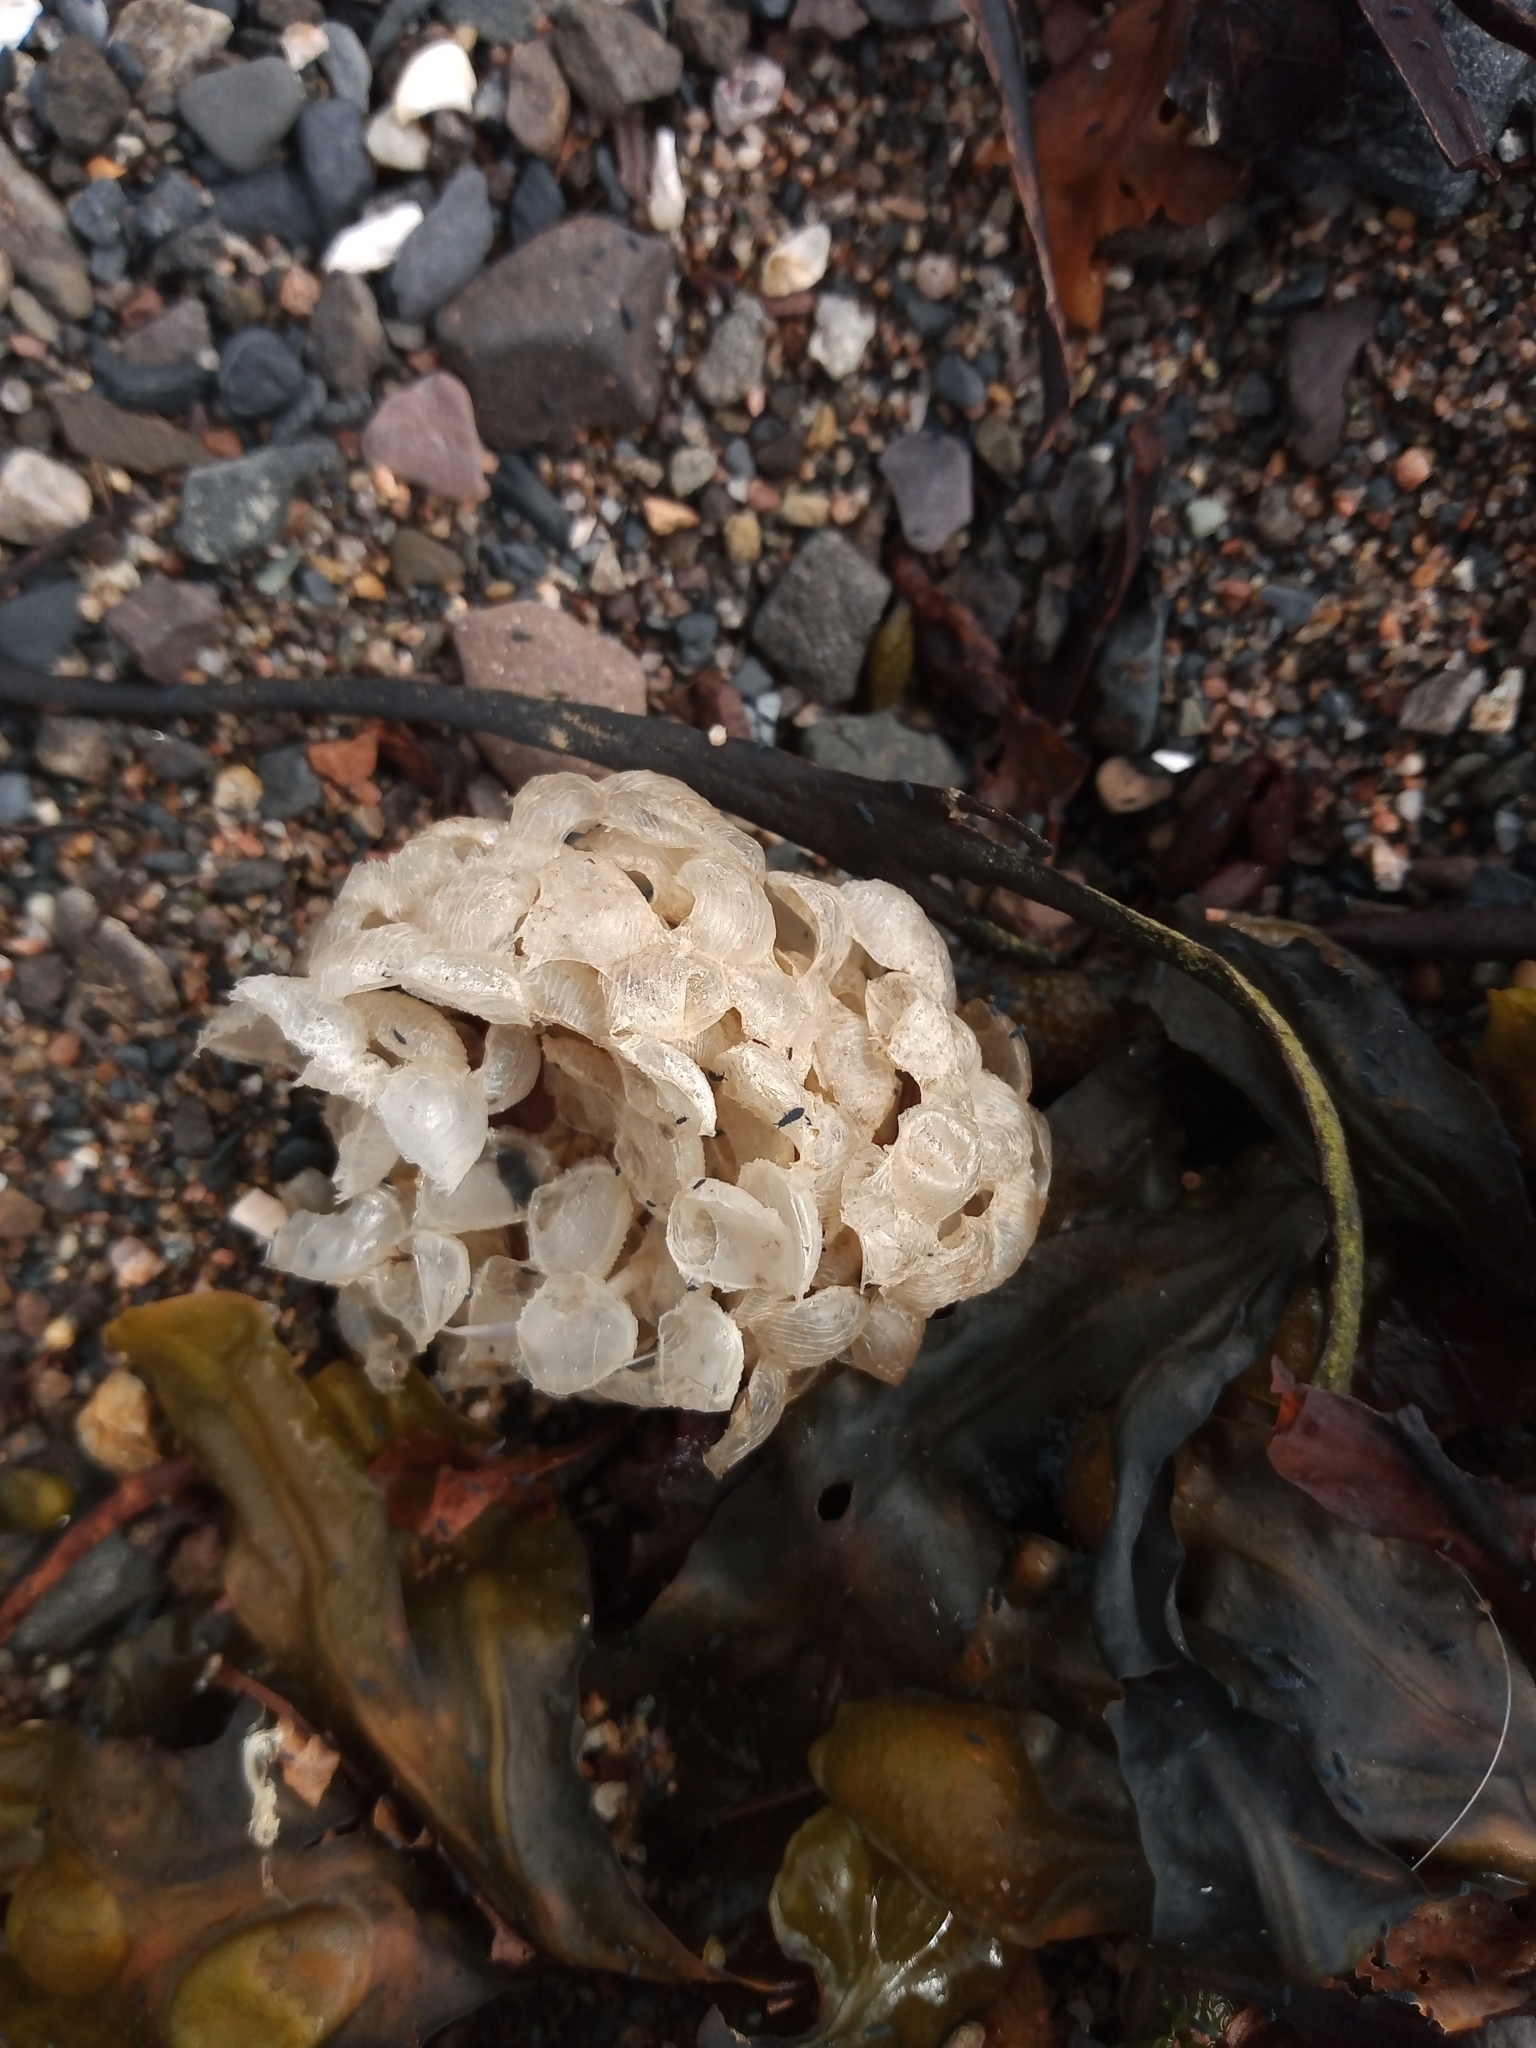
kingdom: Animalia
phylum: Mollusca
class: Gastropoda
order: Neogastropoda
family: Buccinidae
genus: Buccinum
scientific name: Buccinum undatum
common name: Common whelk
